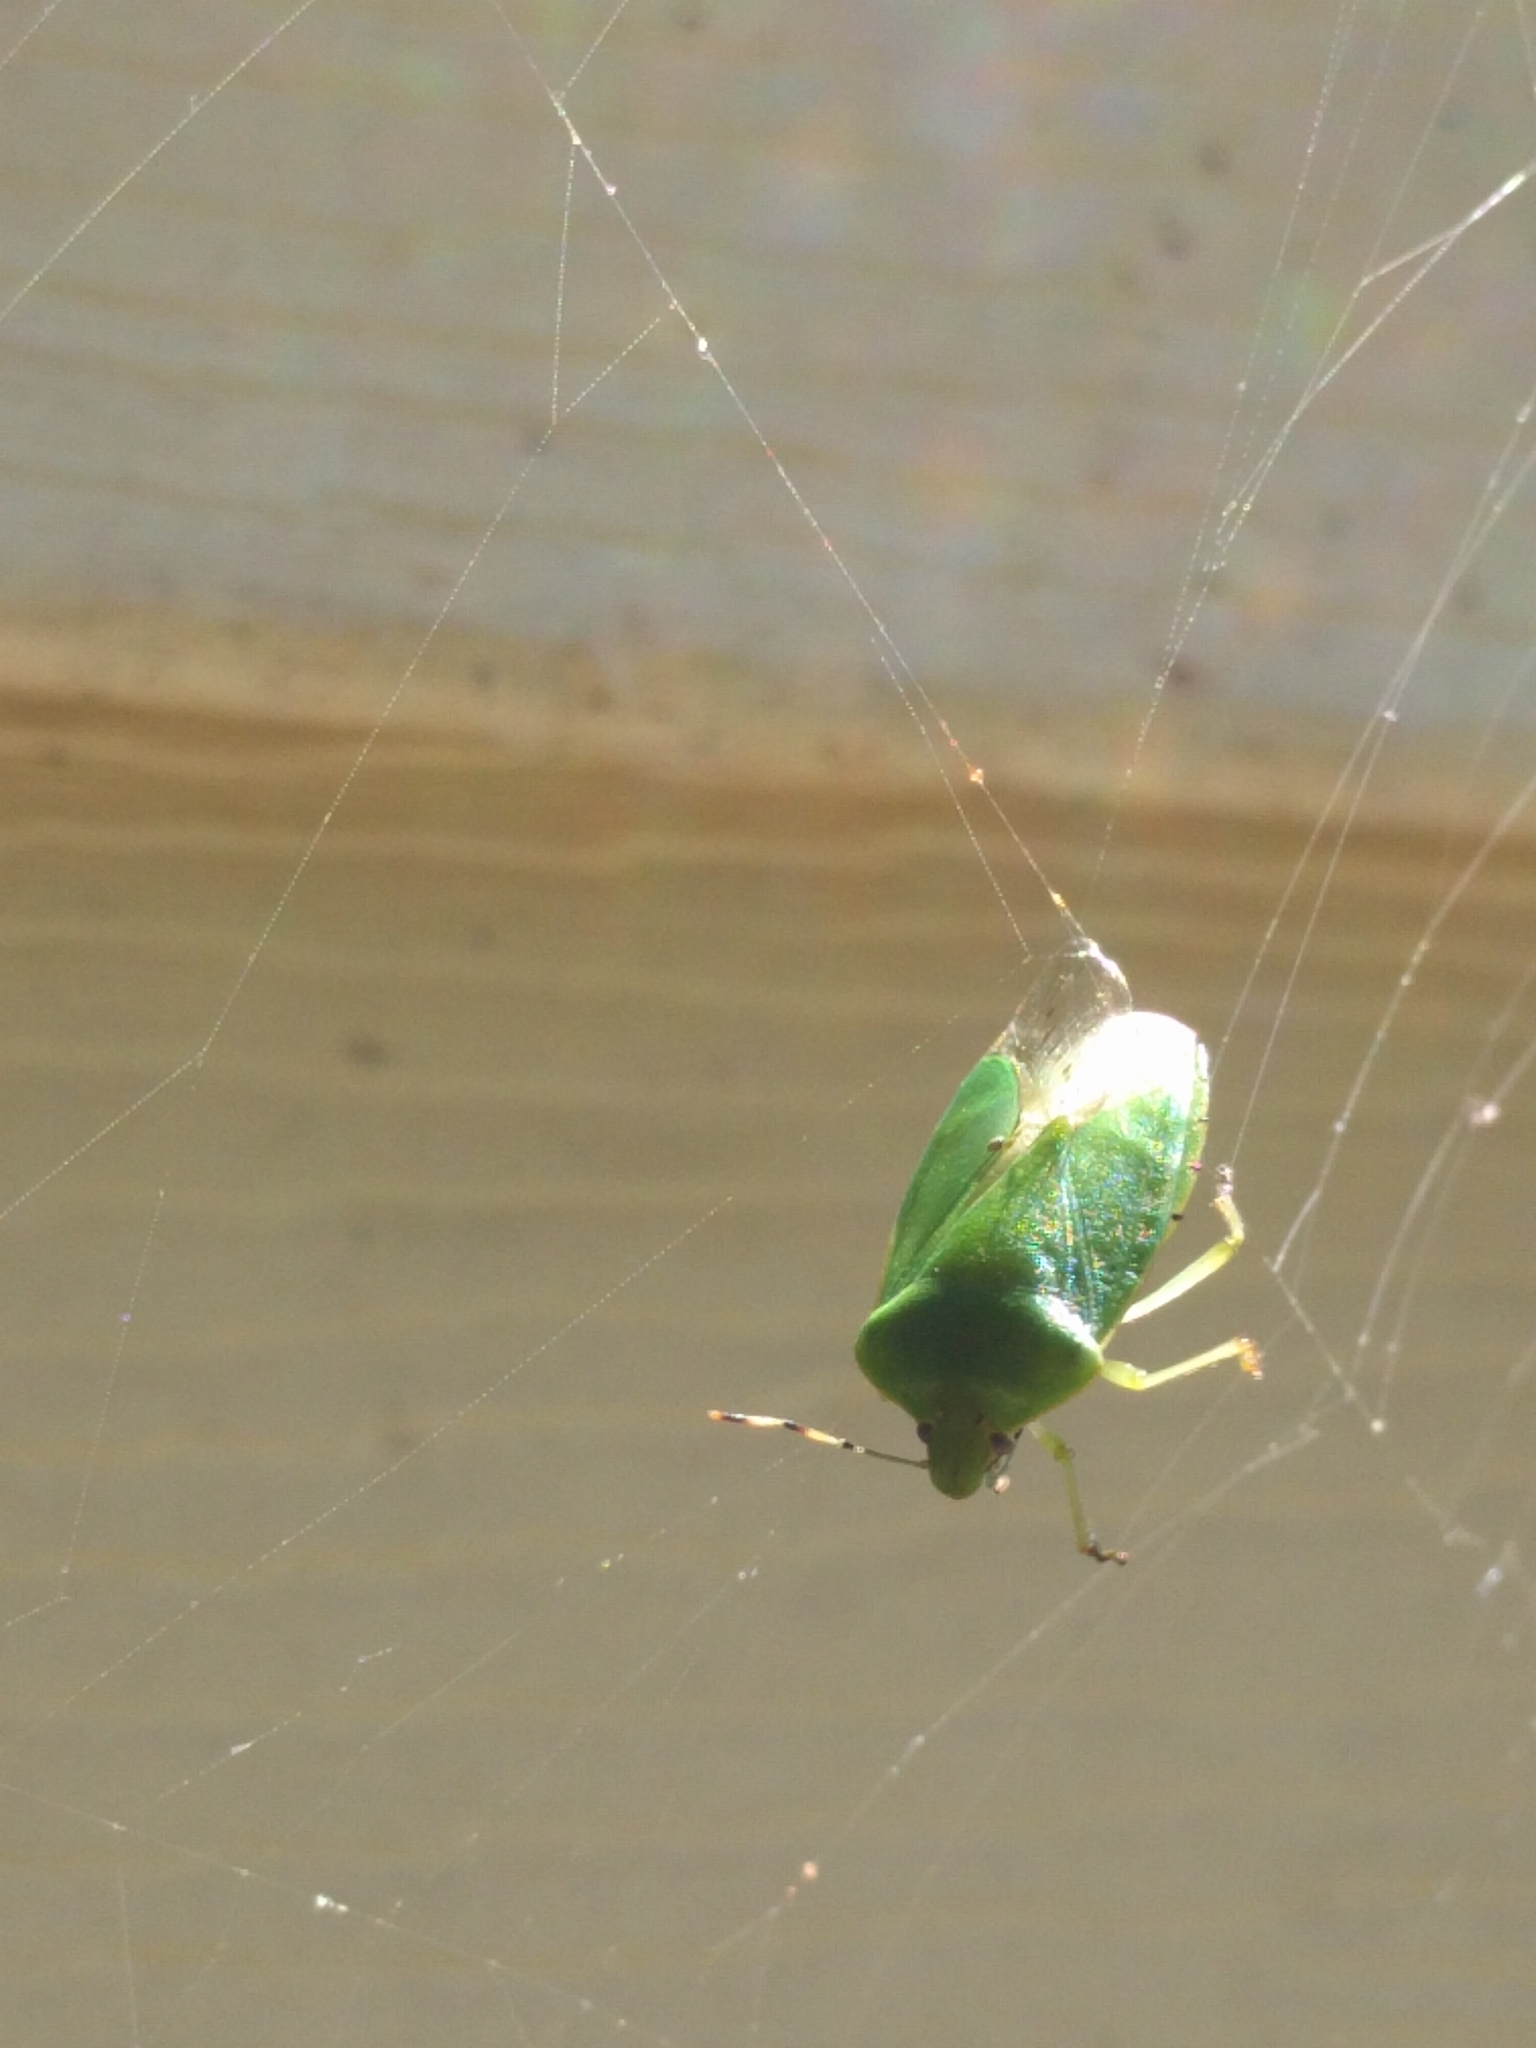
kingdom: Animalia
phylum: Arthropoda
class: Insecta
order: Hemiptera
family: Pentatomidae
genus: Chinavia
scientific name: Chinavia hilaris
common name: Green stink bug
